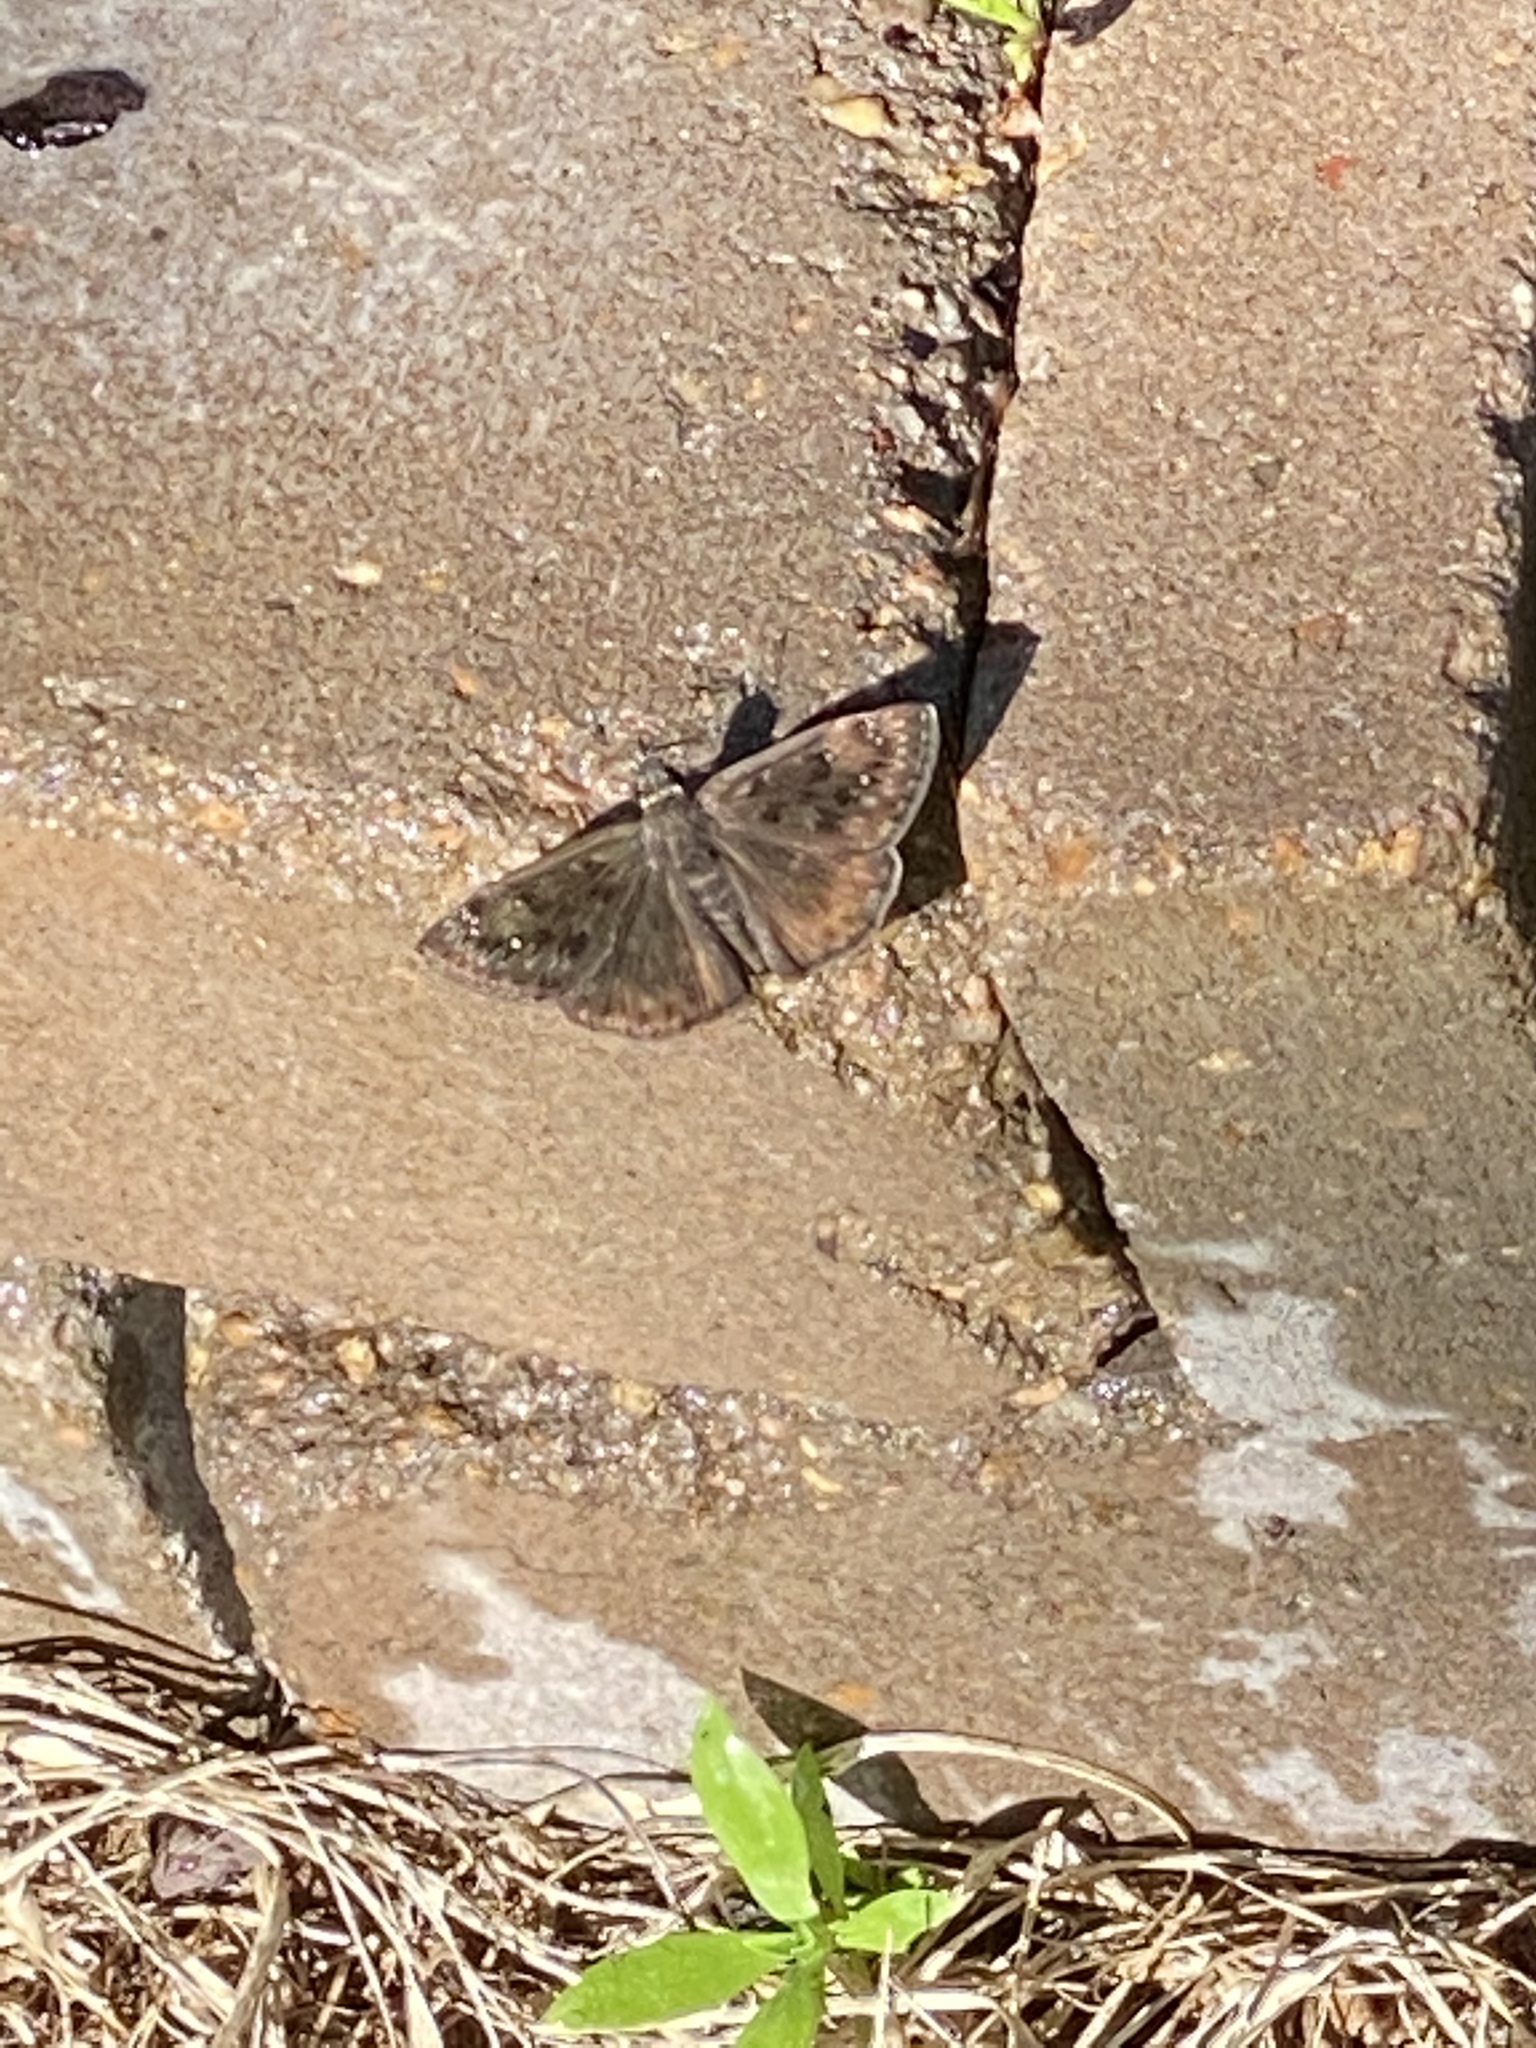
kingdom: Animalia
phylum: Arthropoda
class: Insecta
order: Lepidoptera
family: Hesperiidae
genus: Erynnis
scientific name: Erynnis horatius
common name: Horace's duskywing
